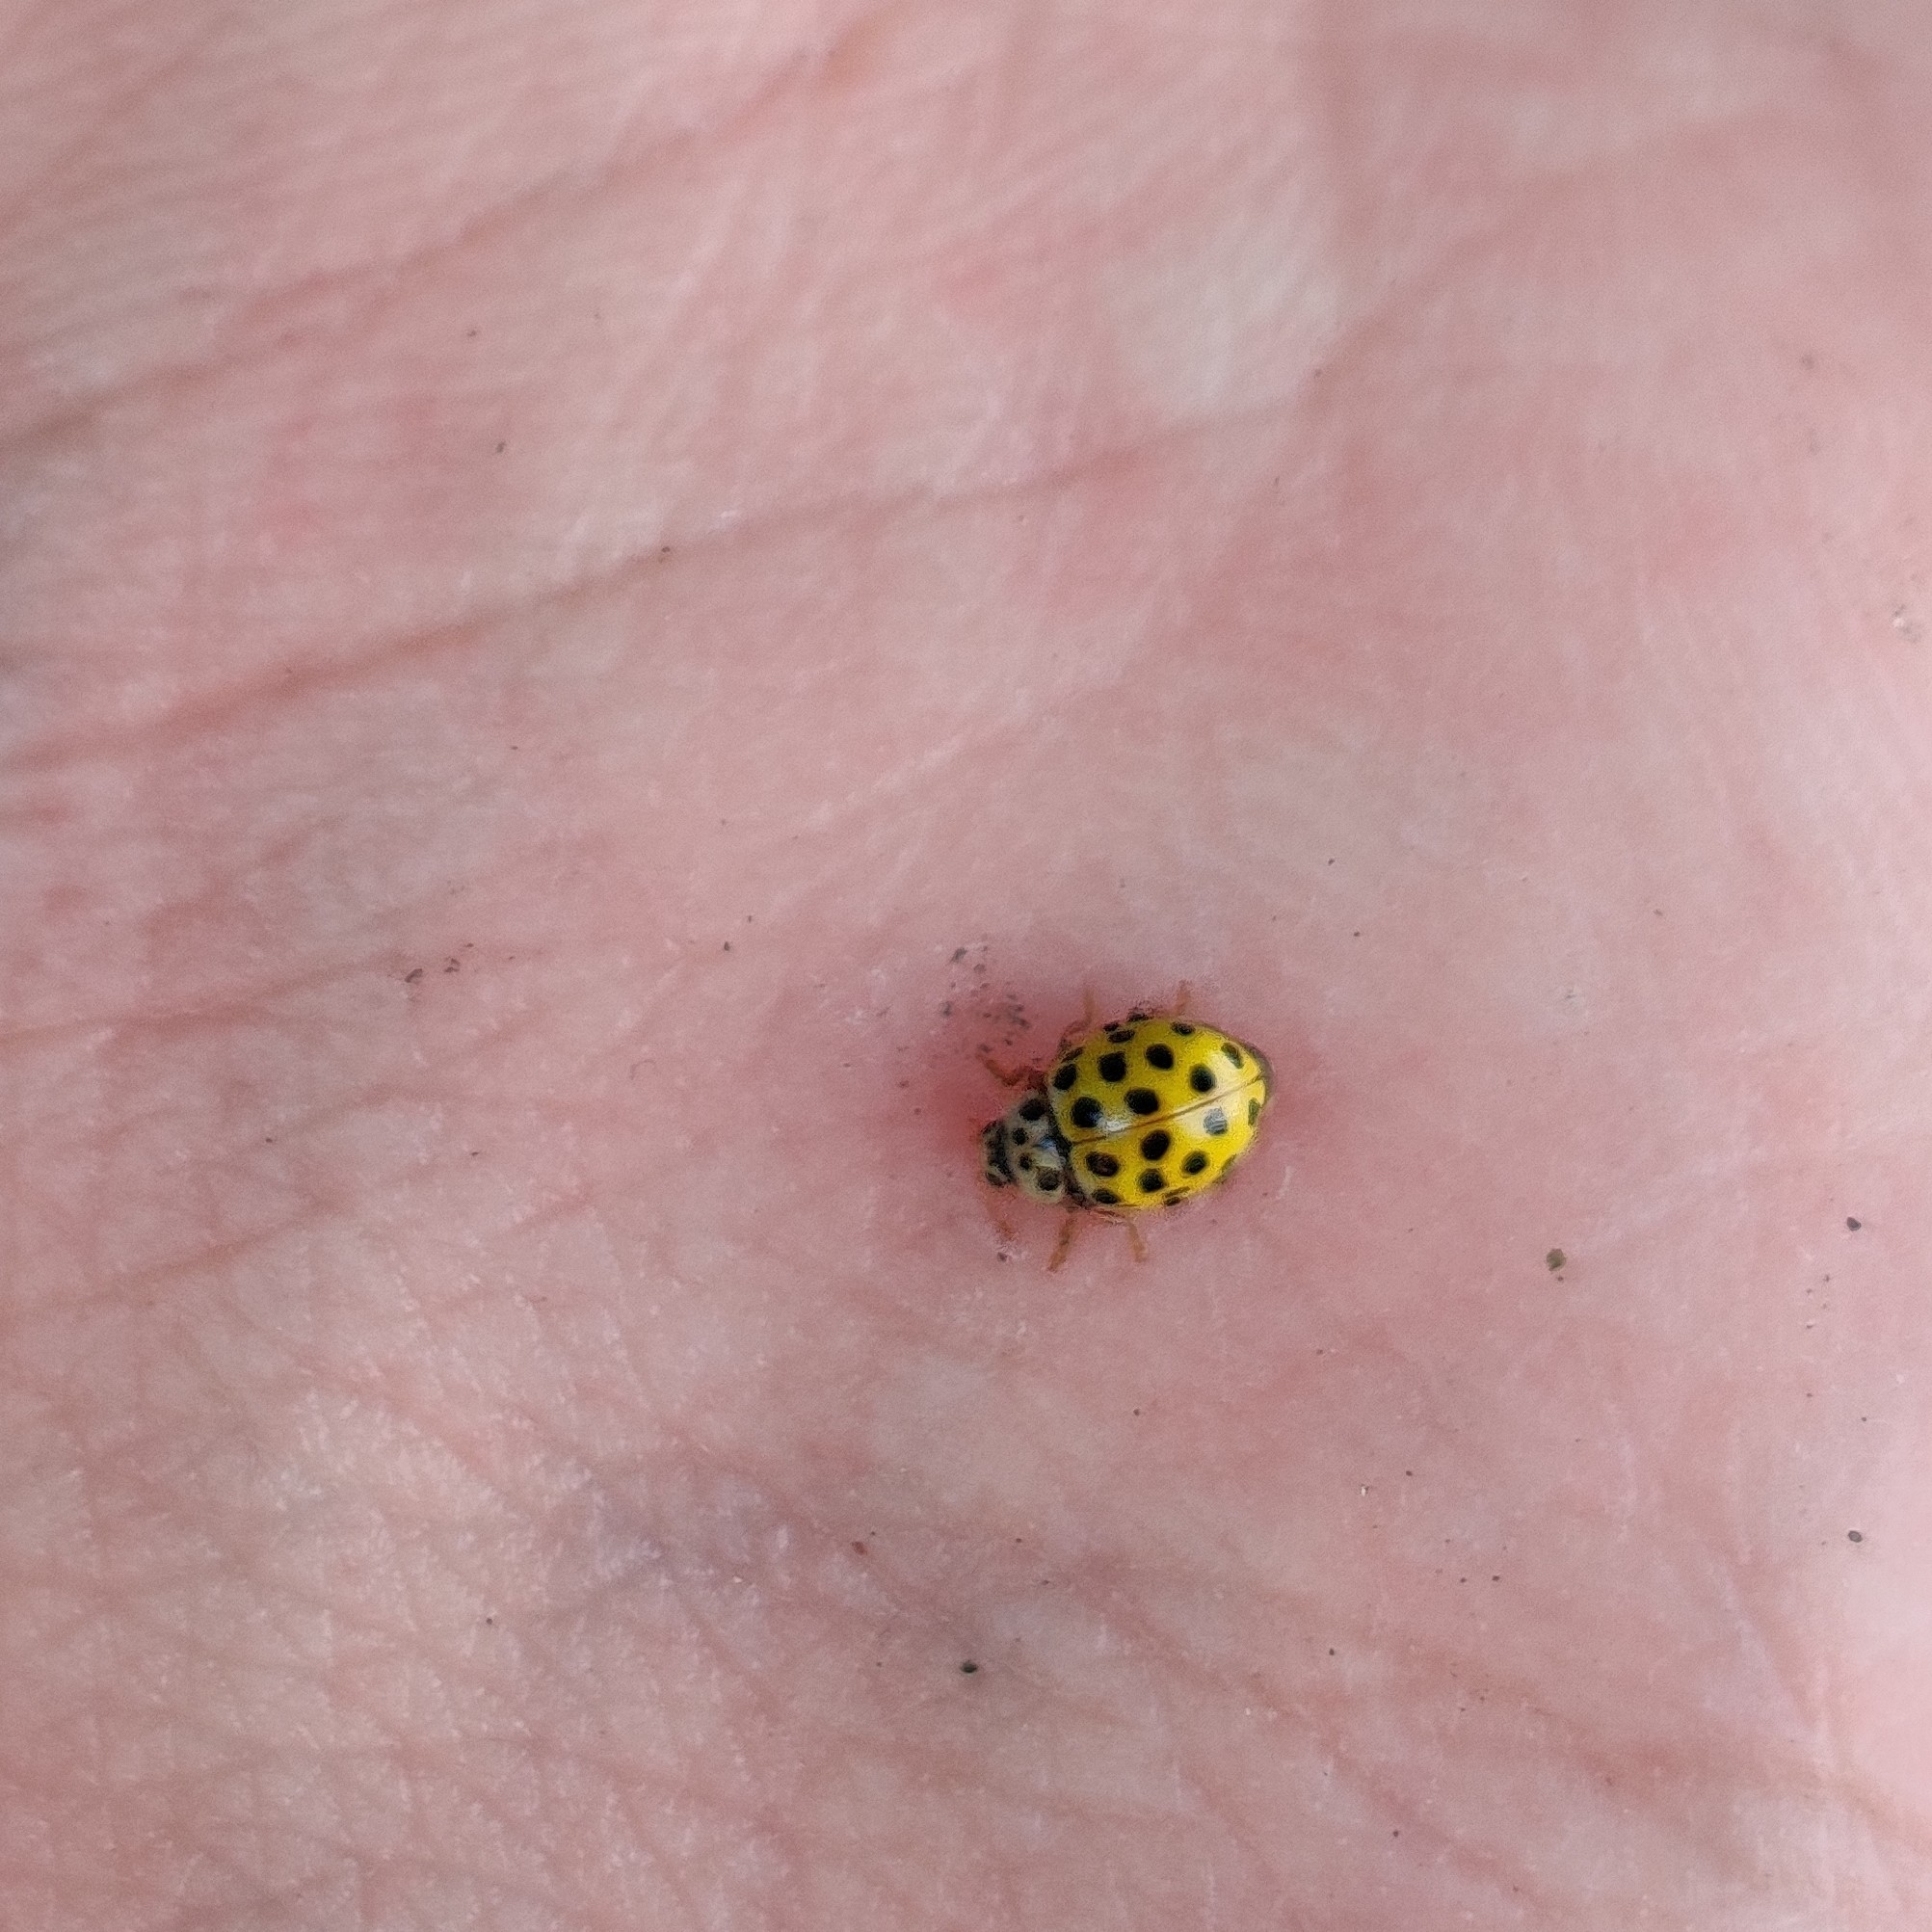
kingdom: Animalia
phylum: Arthropoda
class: Insecta
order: Coleoptera
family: Coccinellidae
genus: Psyllobora
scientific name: Psyllobora vigintiduopunctata
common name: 22-spot ladybird
